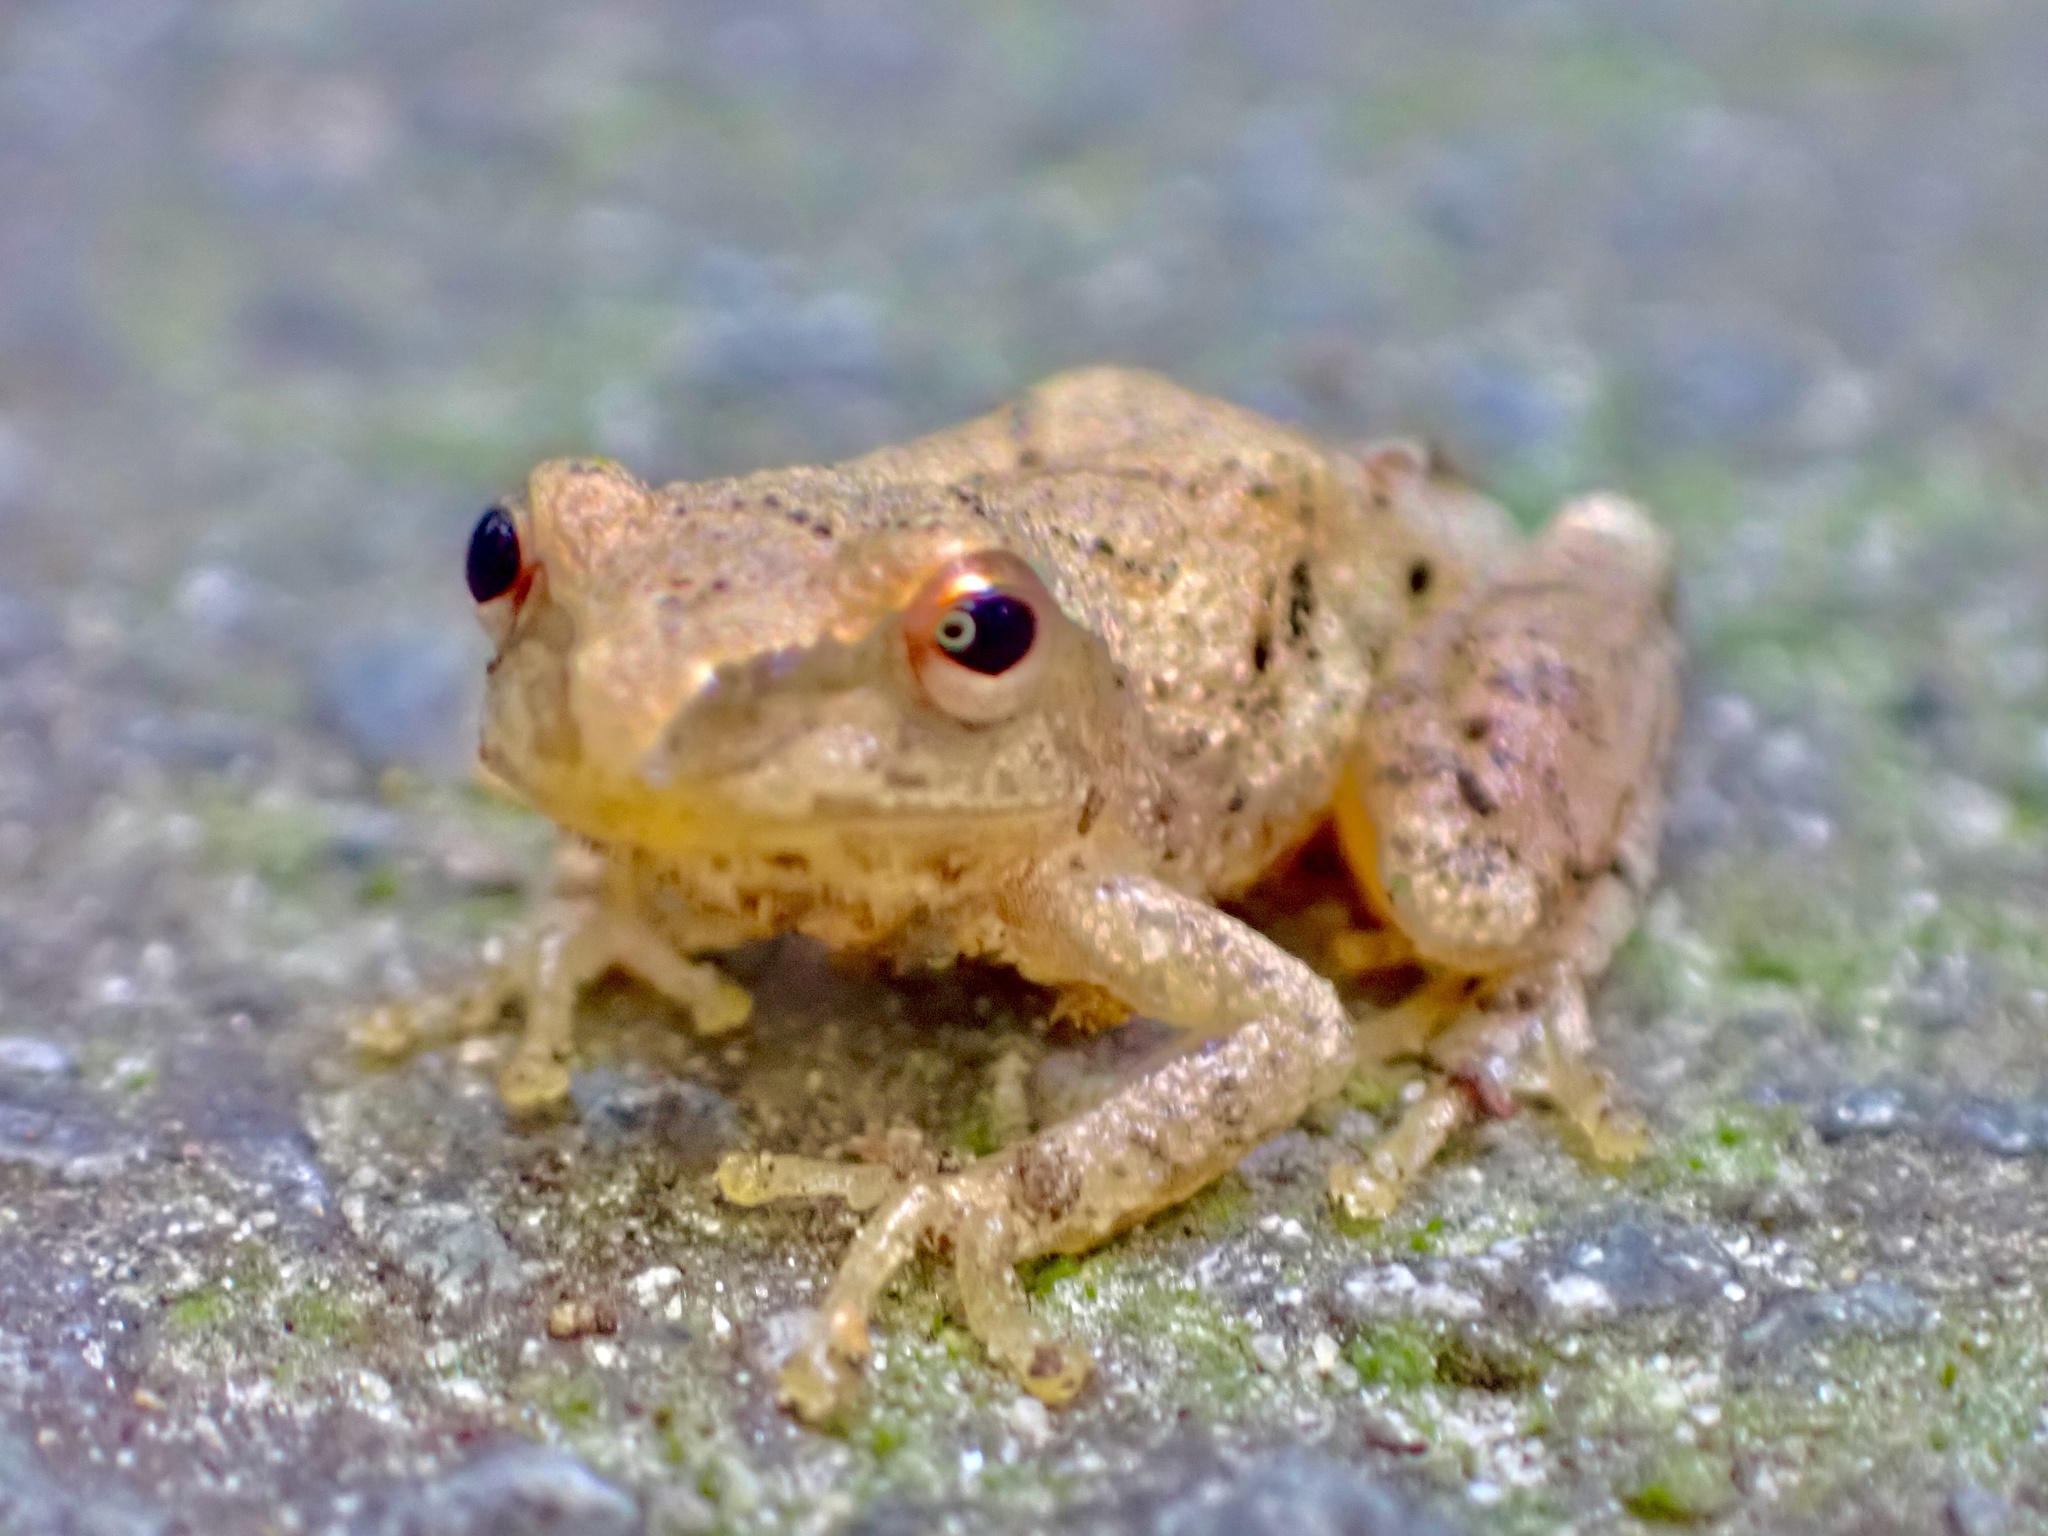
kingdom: Animalia
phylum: Chordata
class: Amphibia
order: Anura
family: Hylidae
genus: Pseudacris
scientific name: Pseudacris crucifer
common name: Spring peeper
